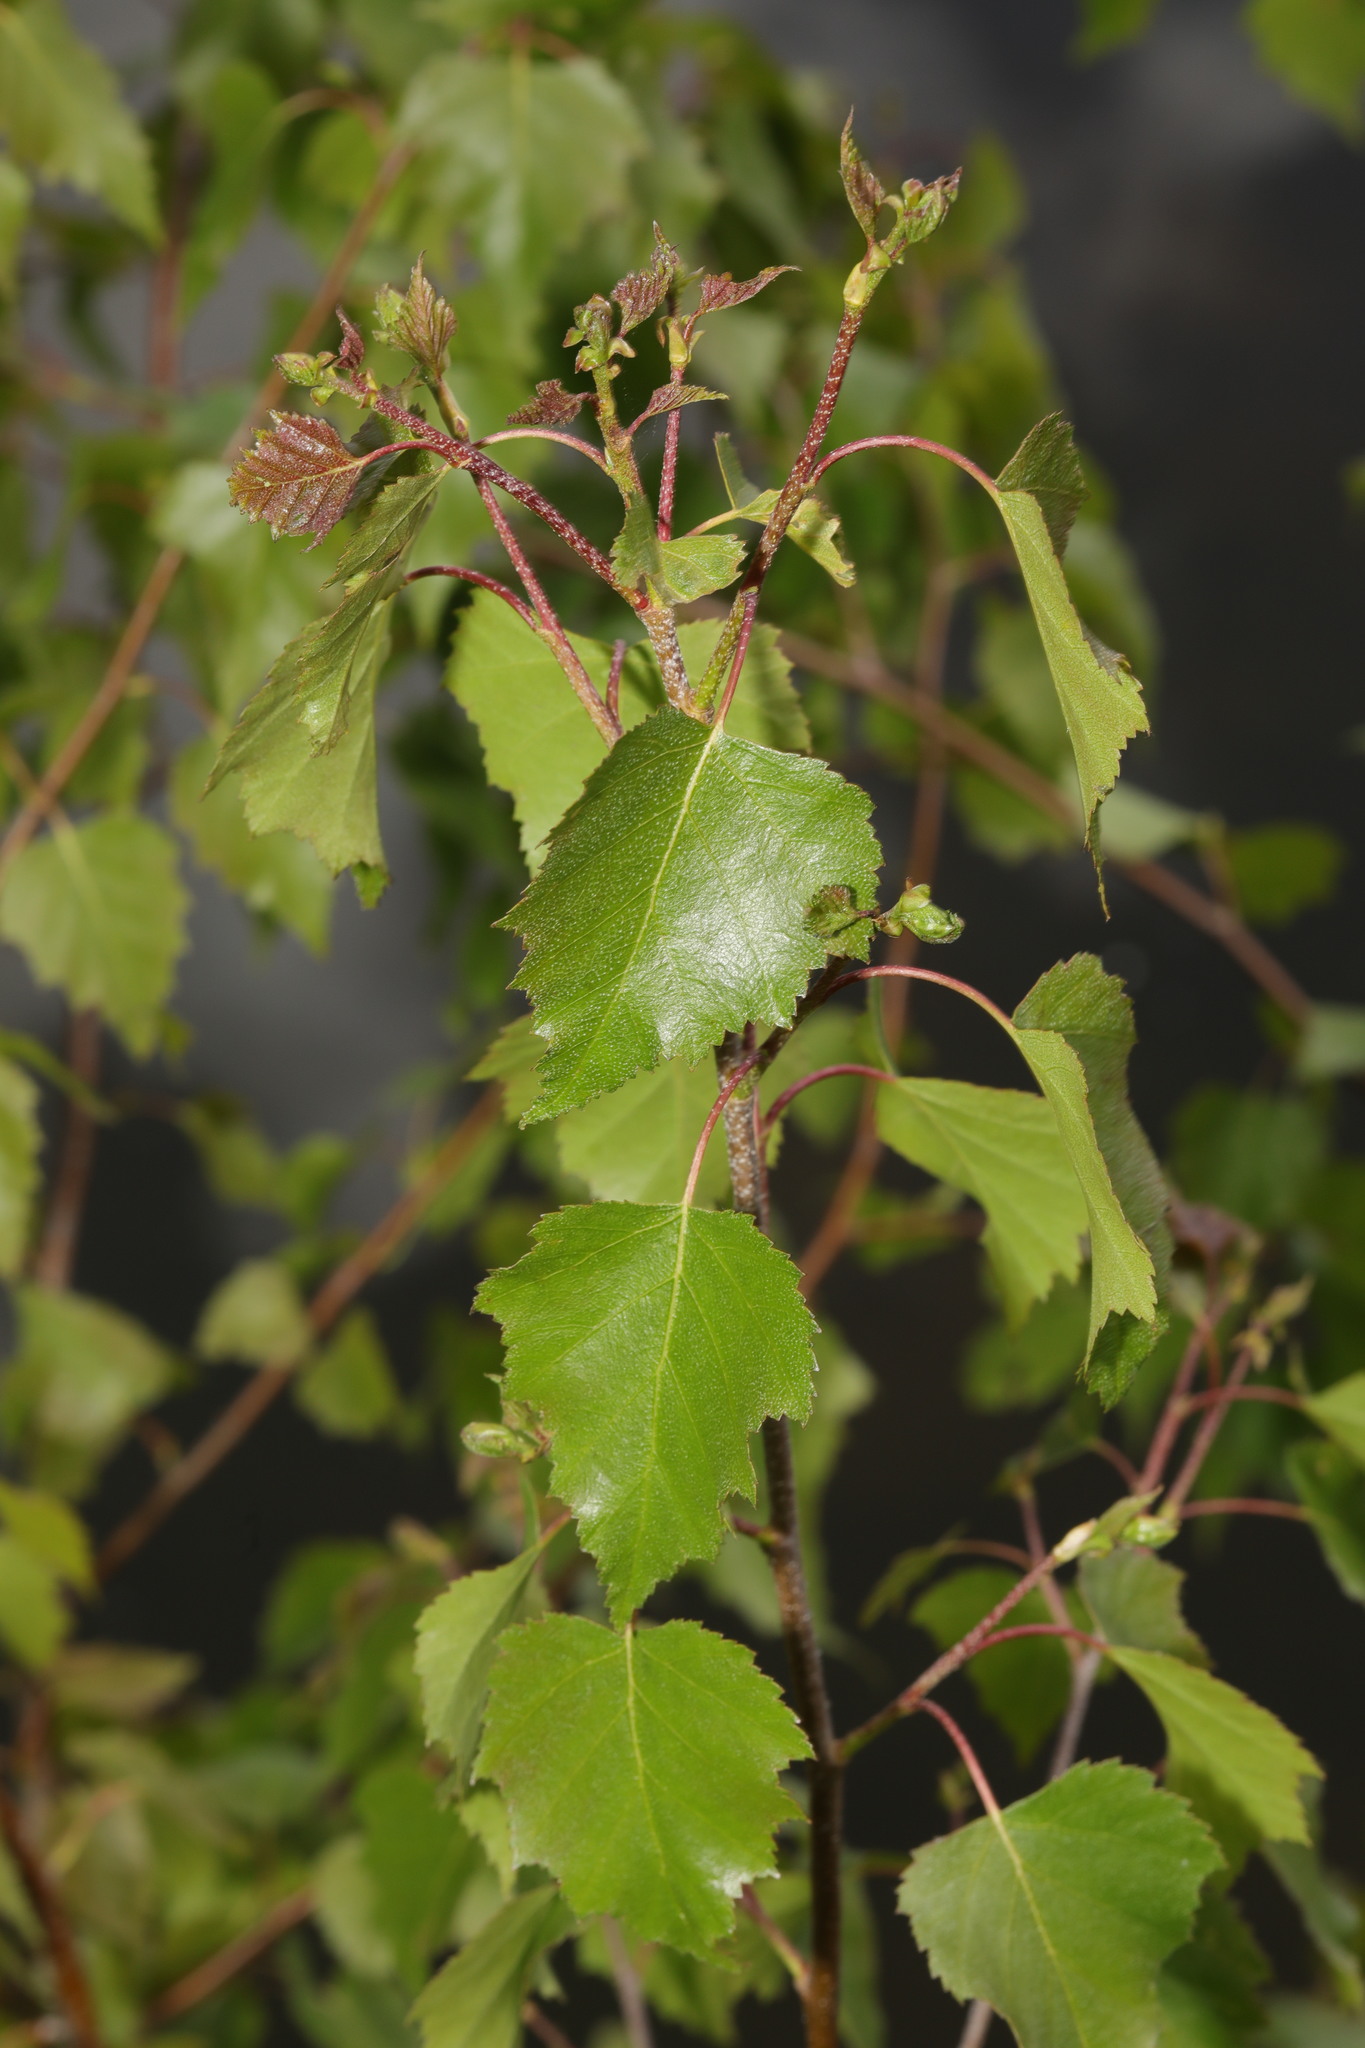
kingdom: Plantae
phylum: Tracheophyta
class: Magnoliopsida
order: Fagales
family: Betulaceae
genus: Betula
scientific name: Betula pendula
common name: Silver birch
